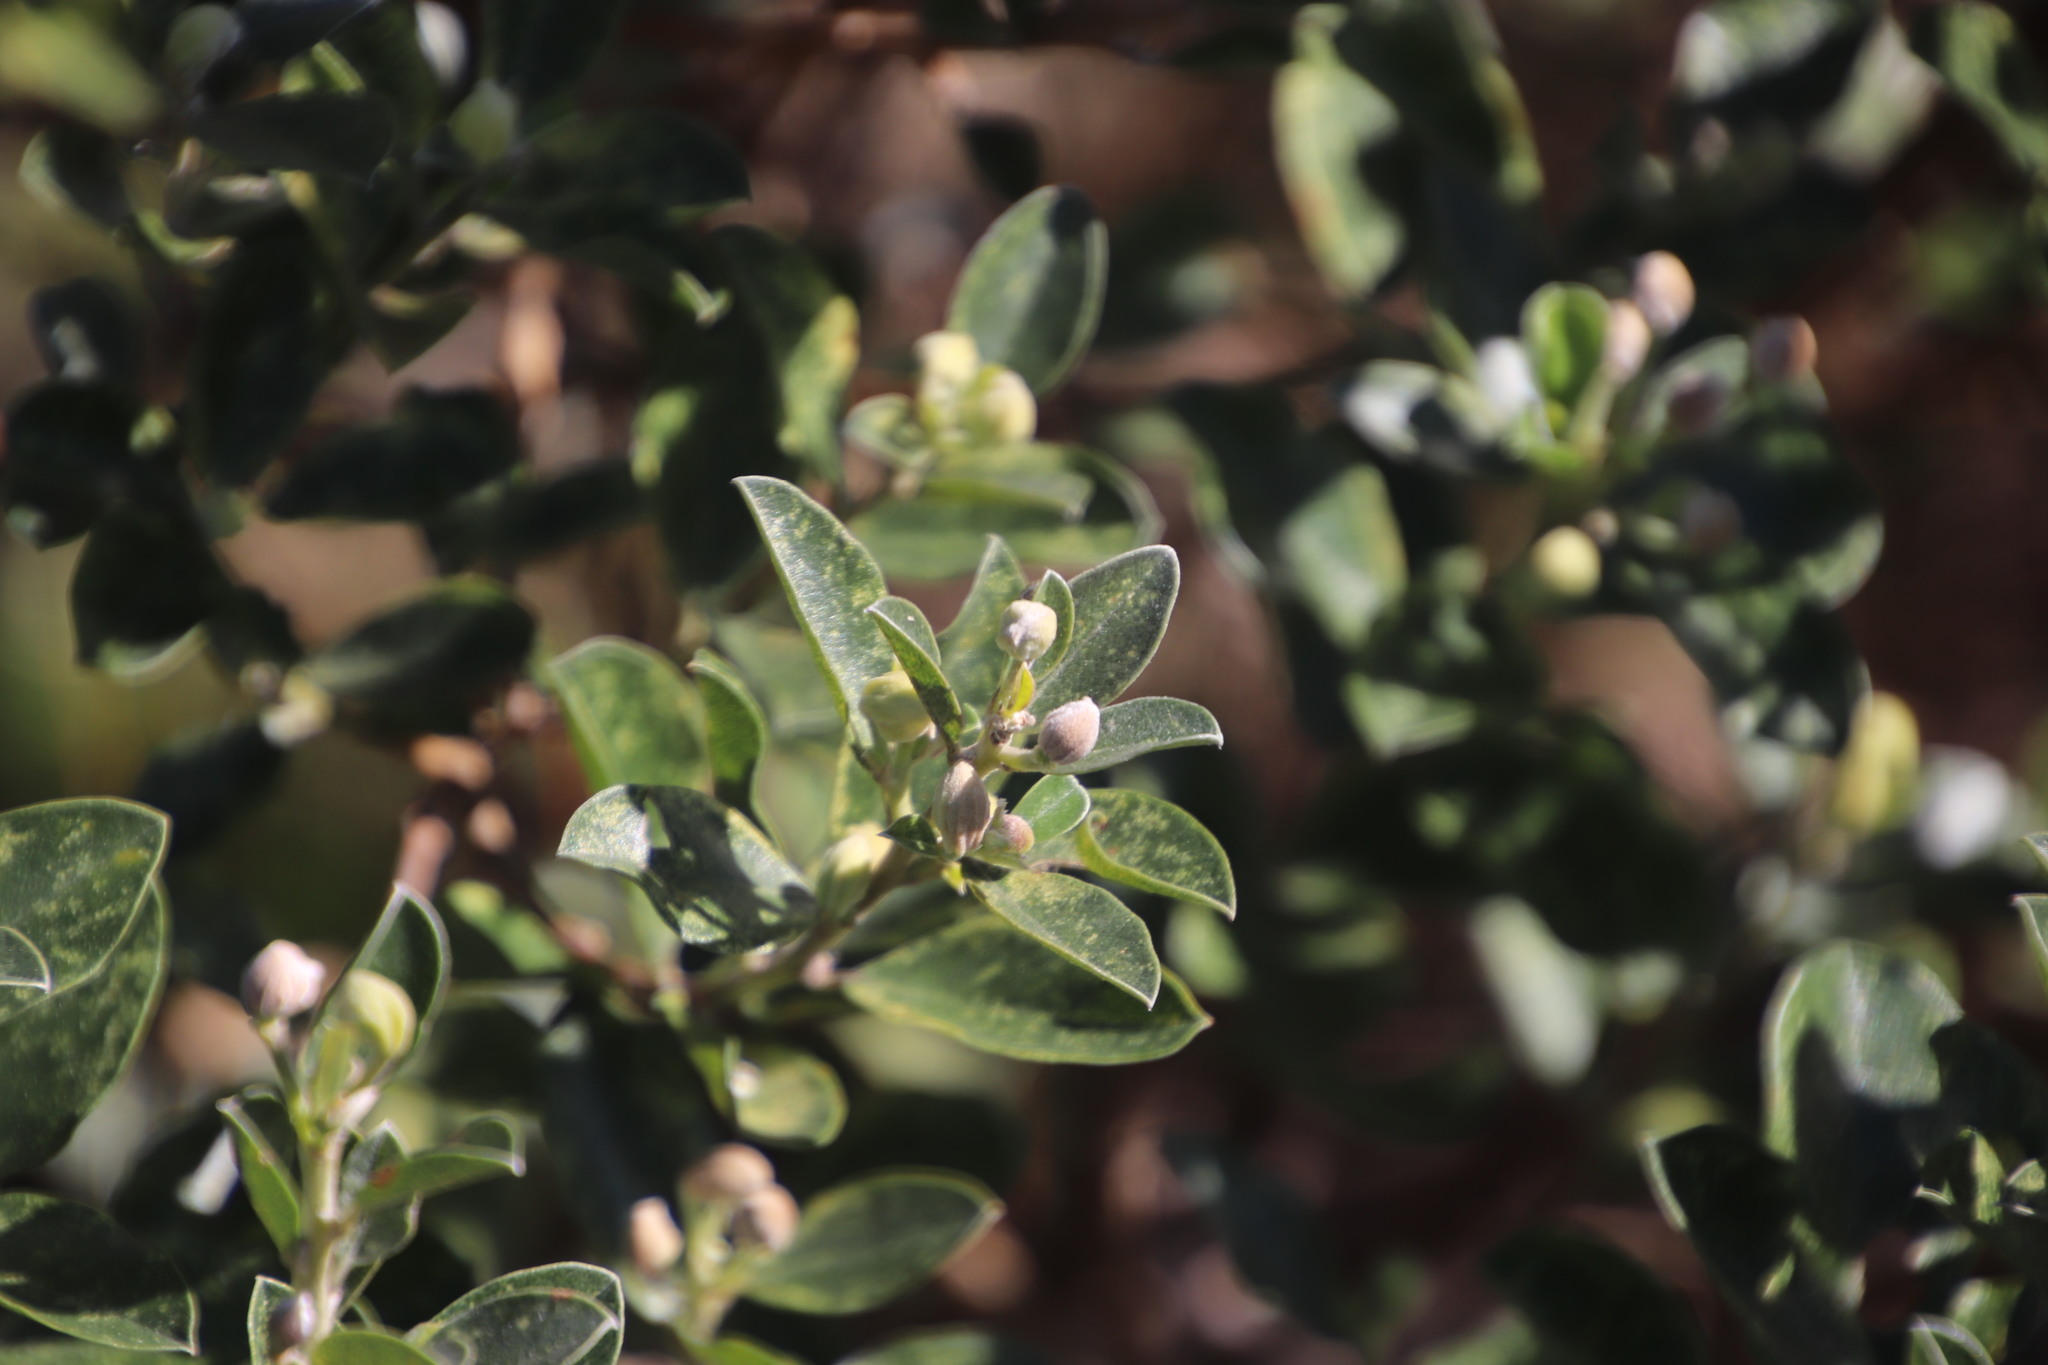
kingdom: Plantae
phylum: Tracheophyta
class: Magnoliopsida
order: Fabales
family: Fabaceae
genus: Podalyria
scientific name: Podalyria calyptrata
